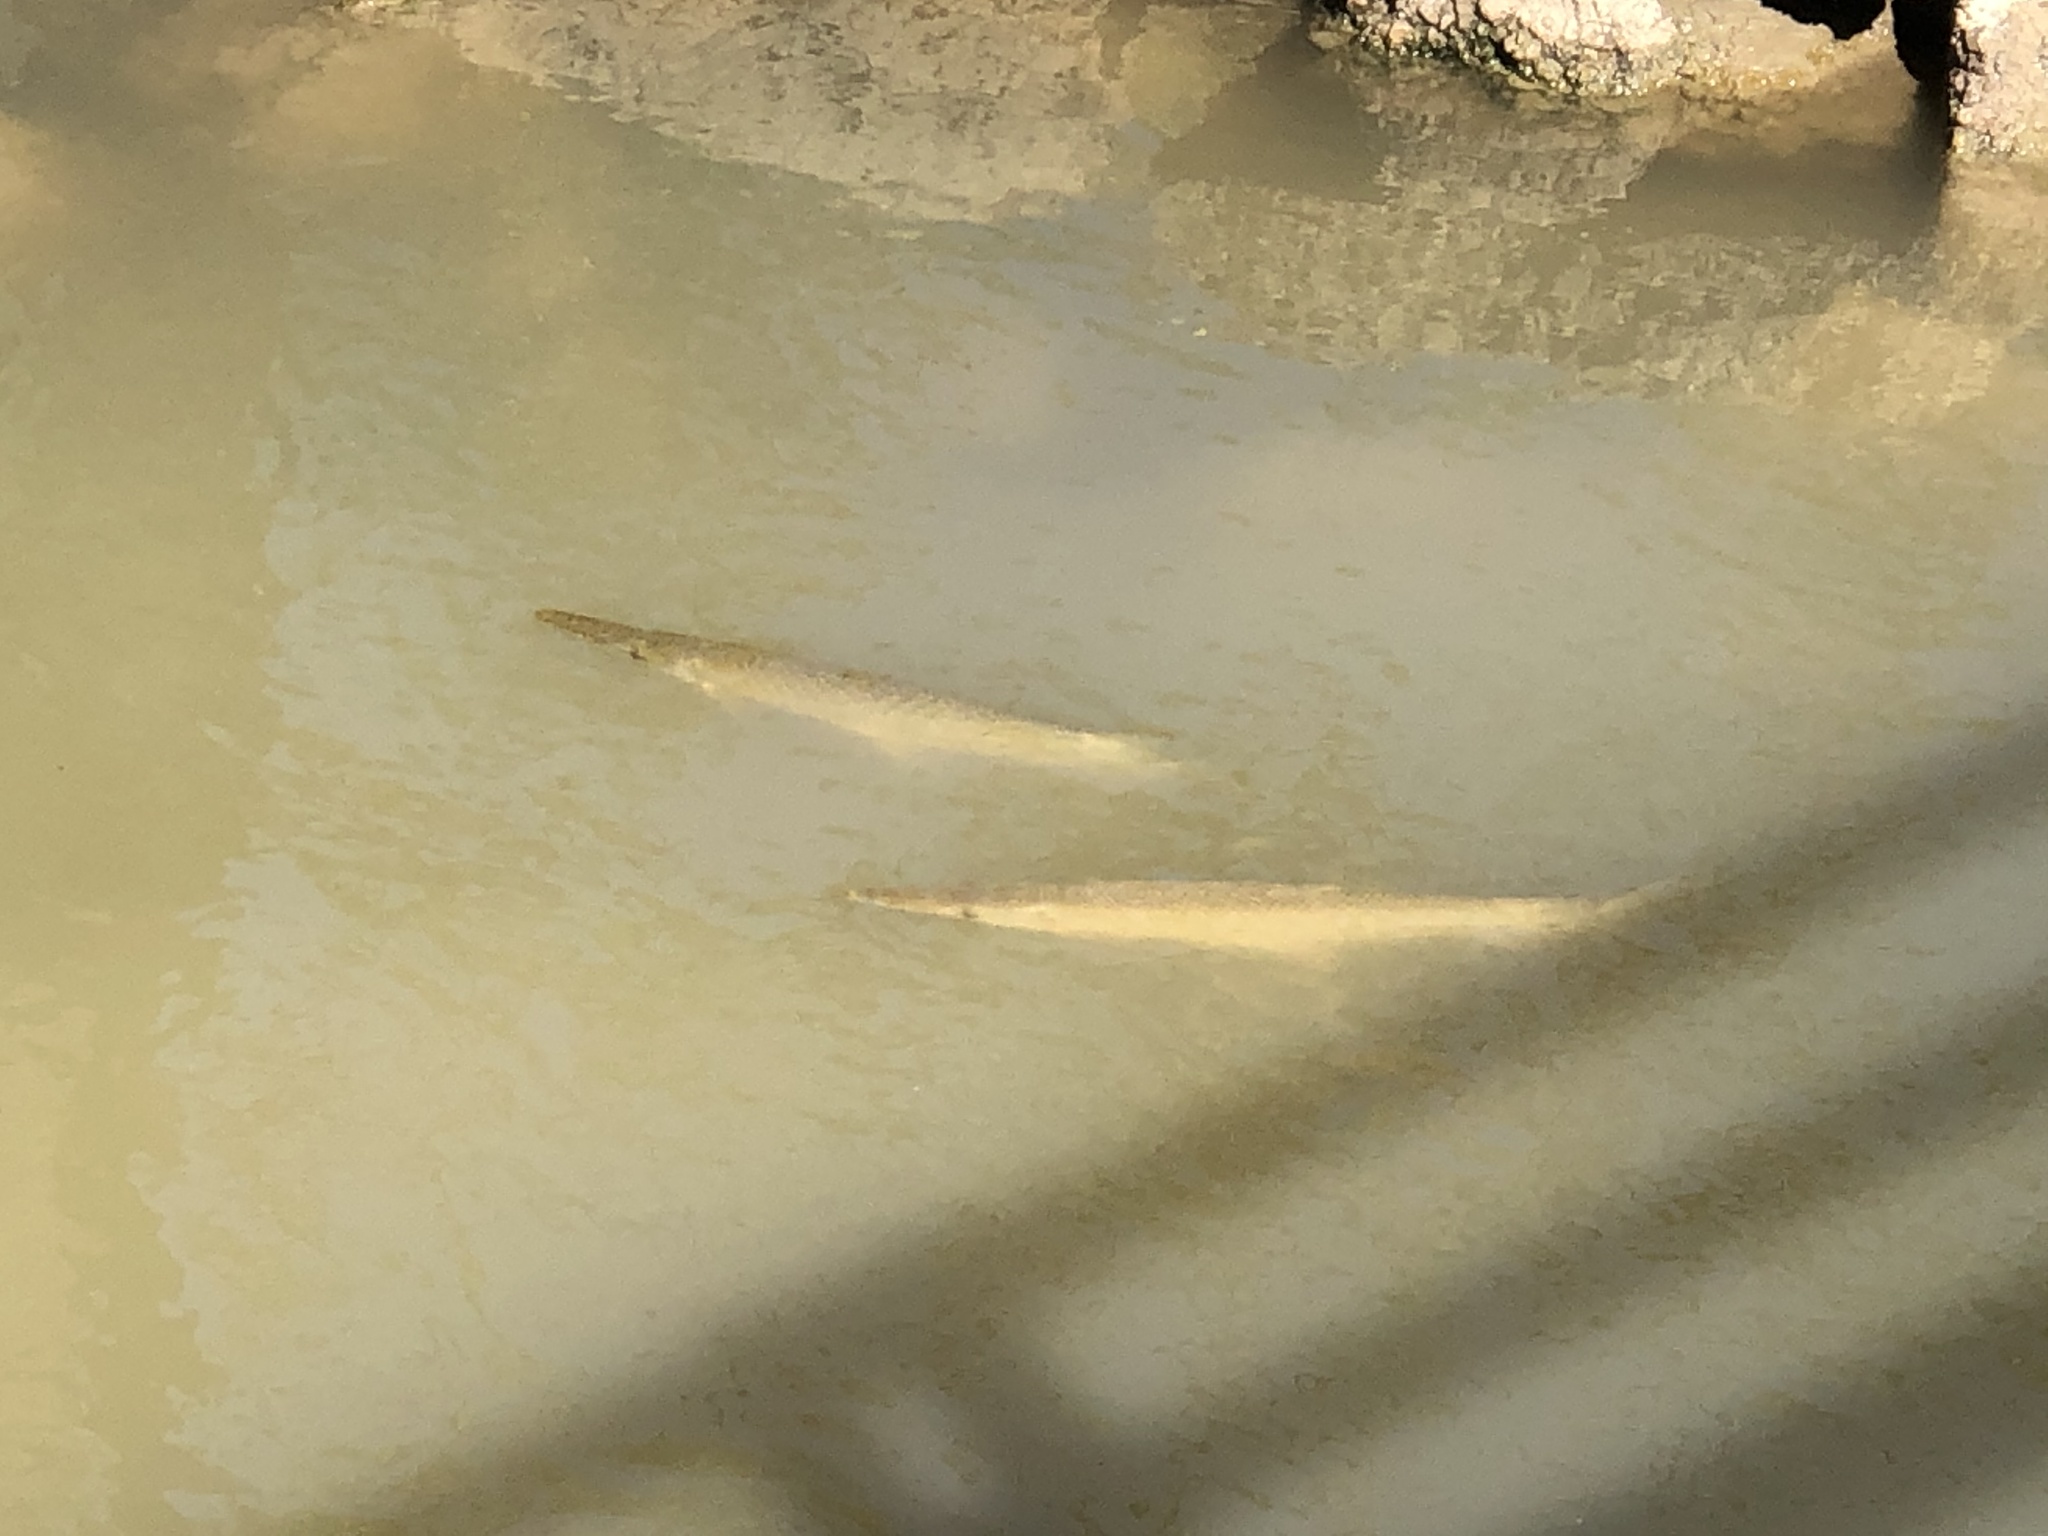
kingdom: Animalia
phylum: Chordata
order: Lepisosteiformes
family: Lepisosteidae
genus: Lepisosteus
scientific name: Lepisosteus oculatus
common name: Spotted gar
